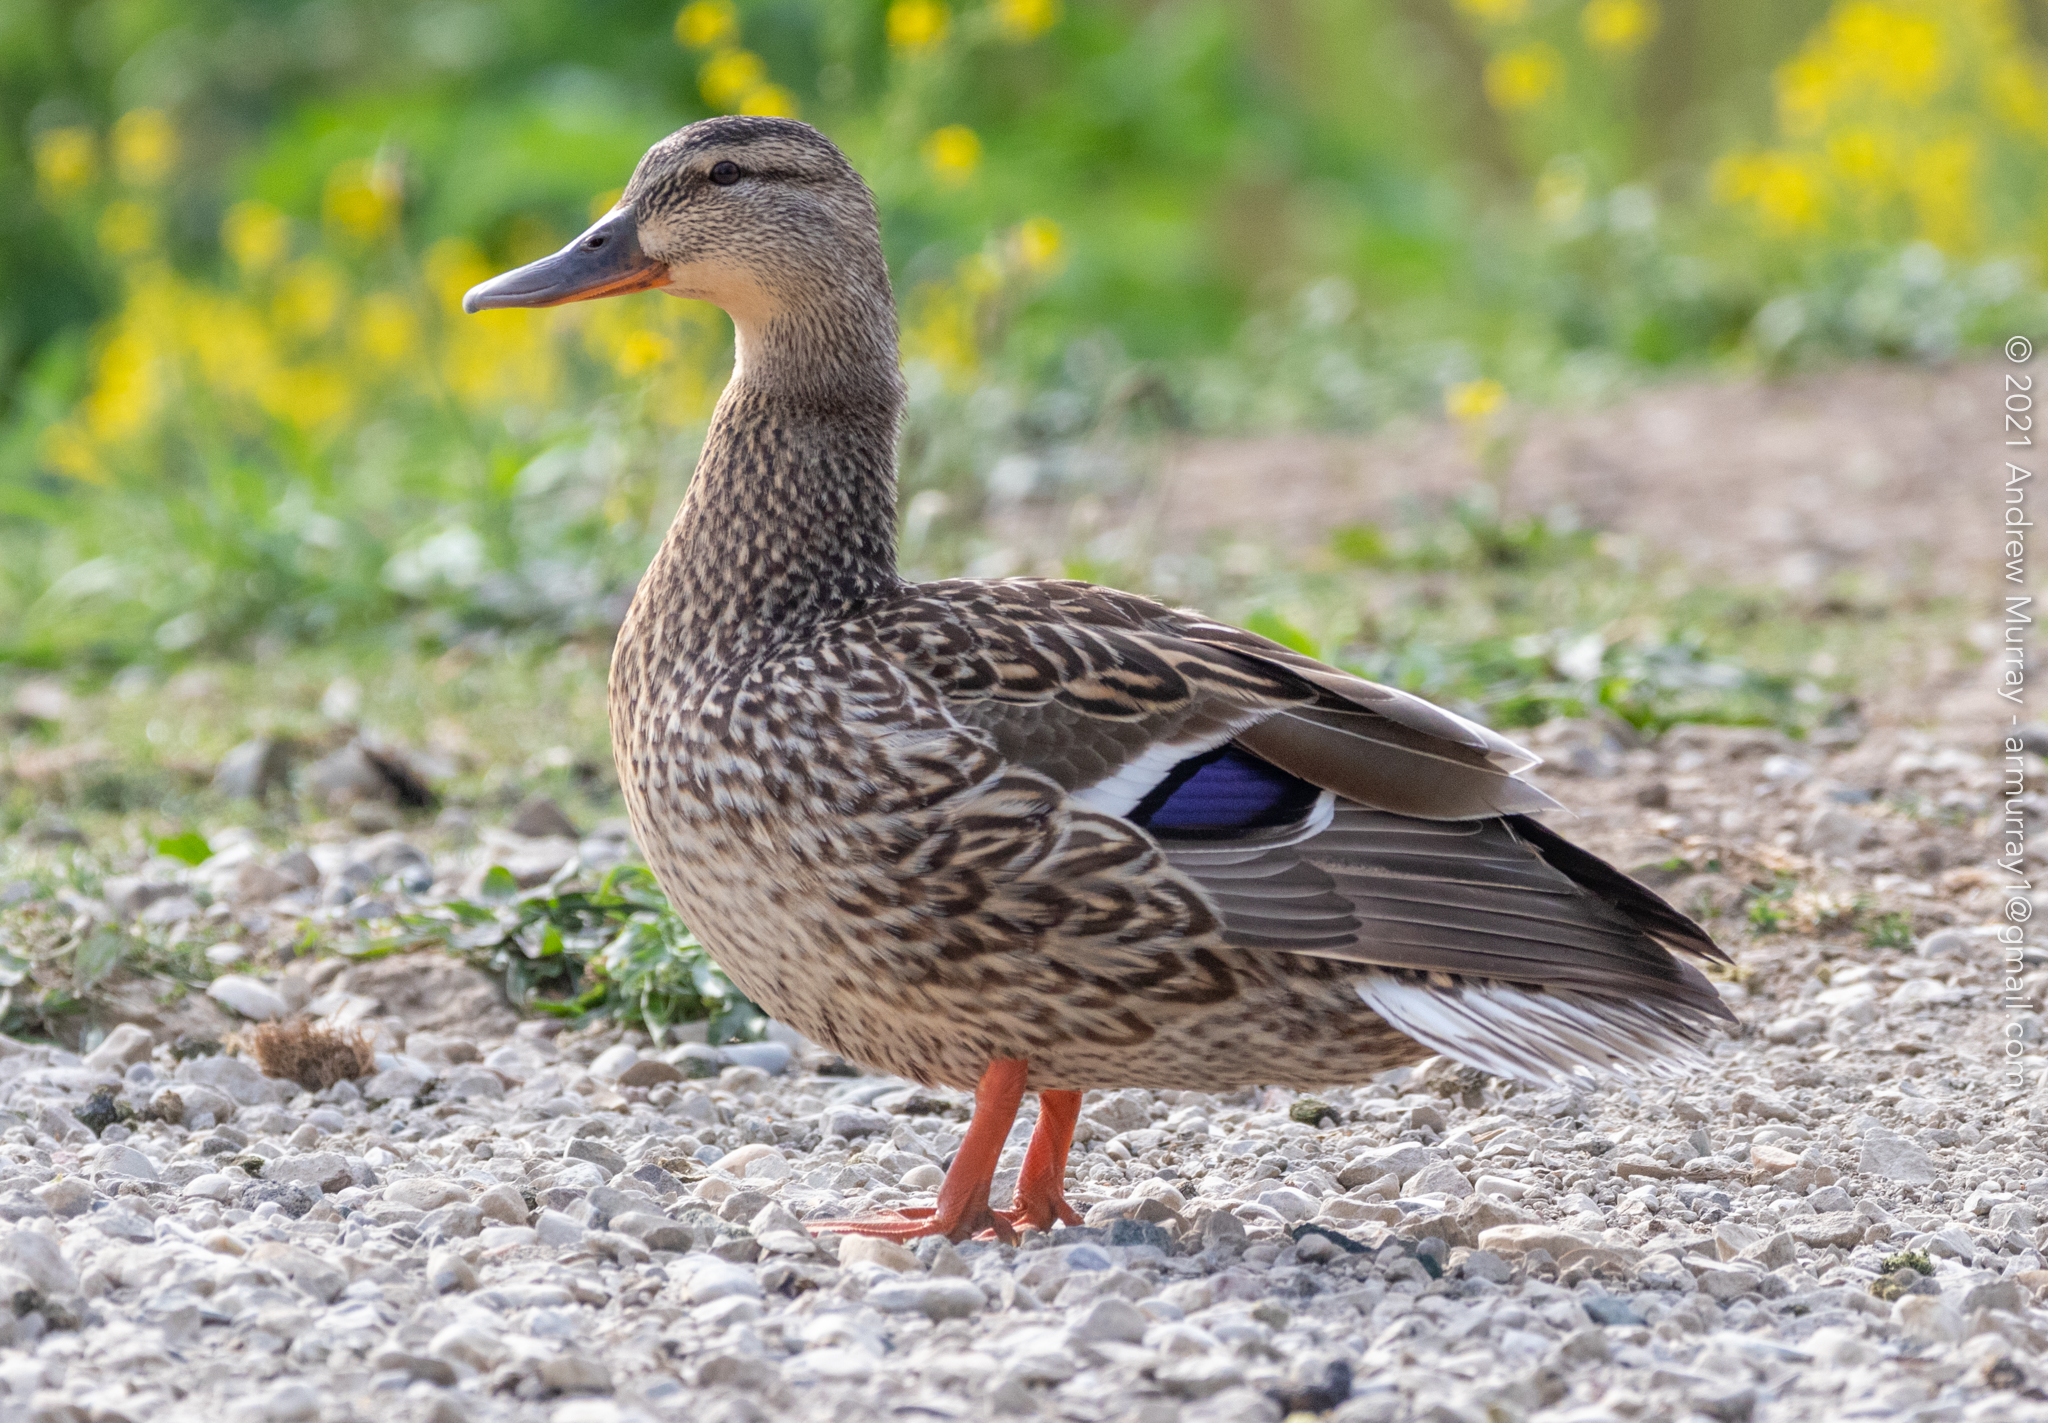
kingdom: Animalia
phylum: Chordata
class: Aves
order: Anseriformes
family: Anatidae
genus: Anas
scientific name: Anas platyrhynchos
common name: Mallard
